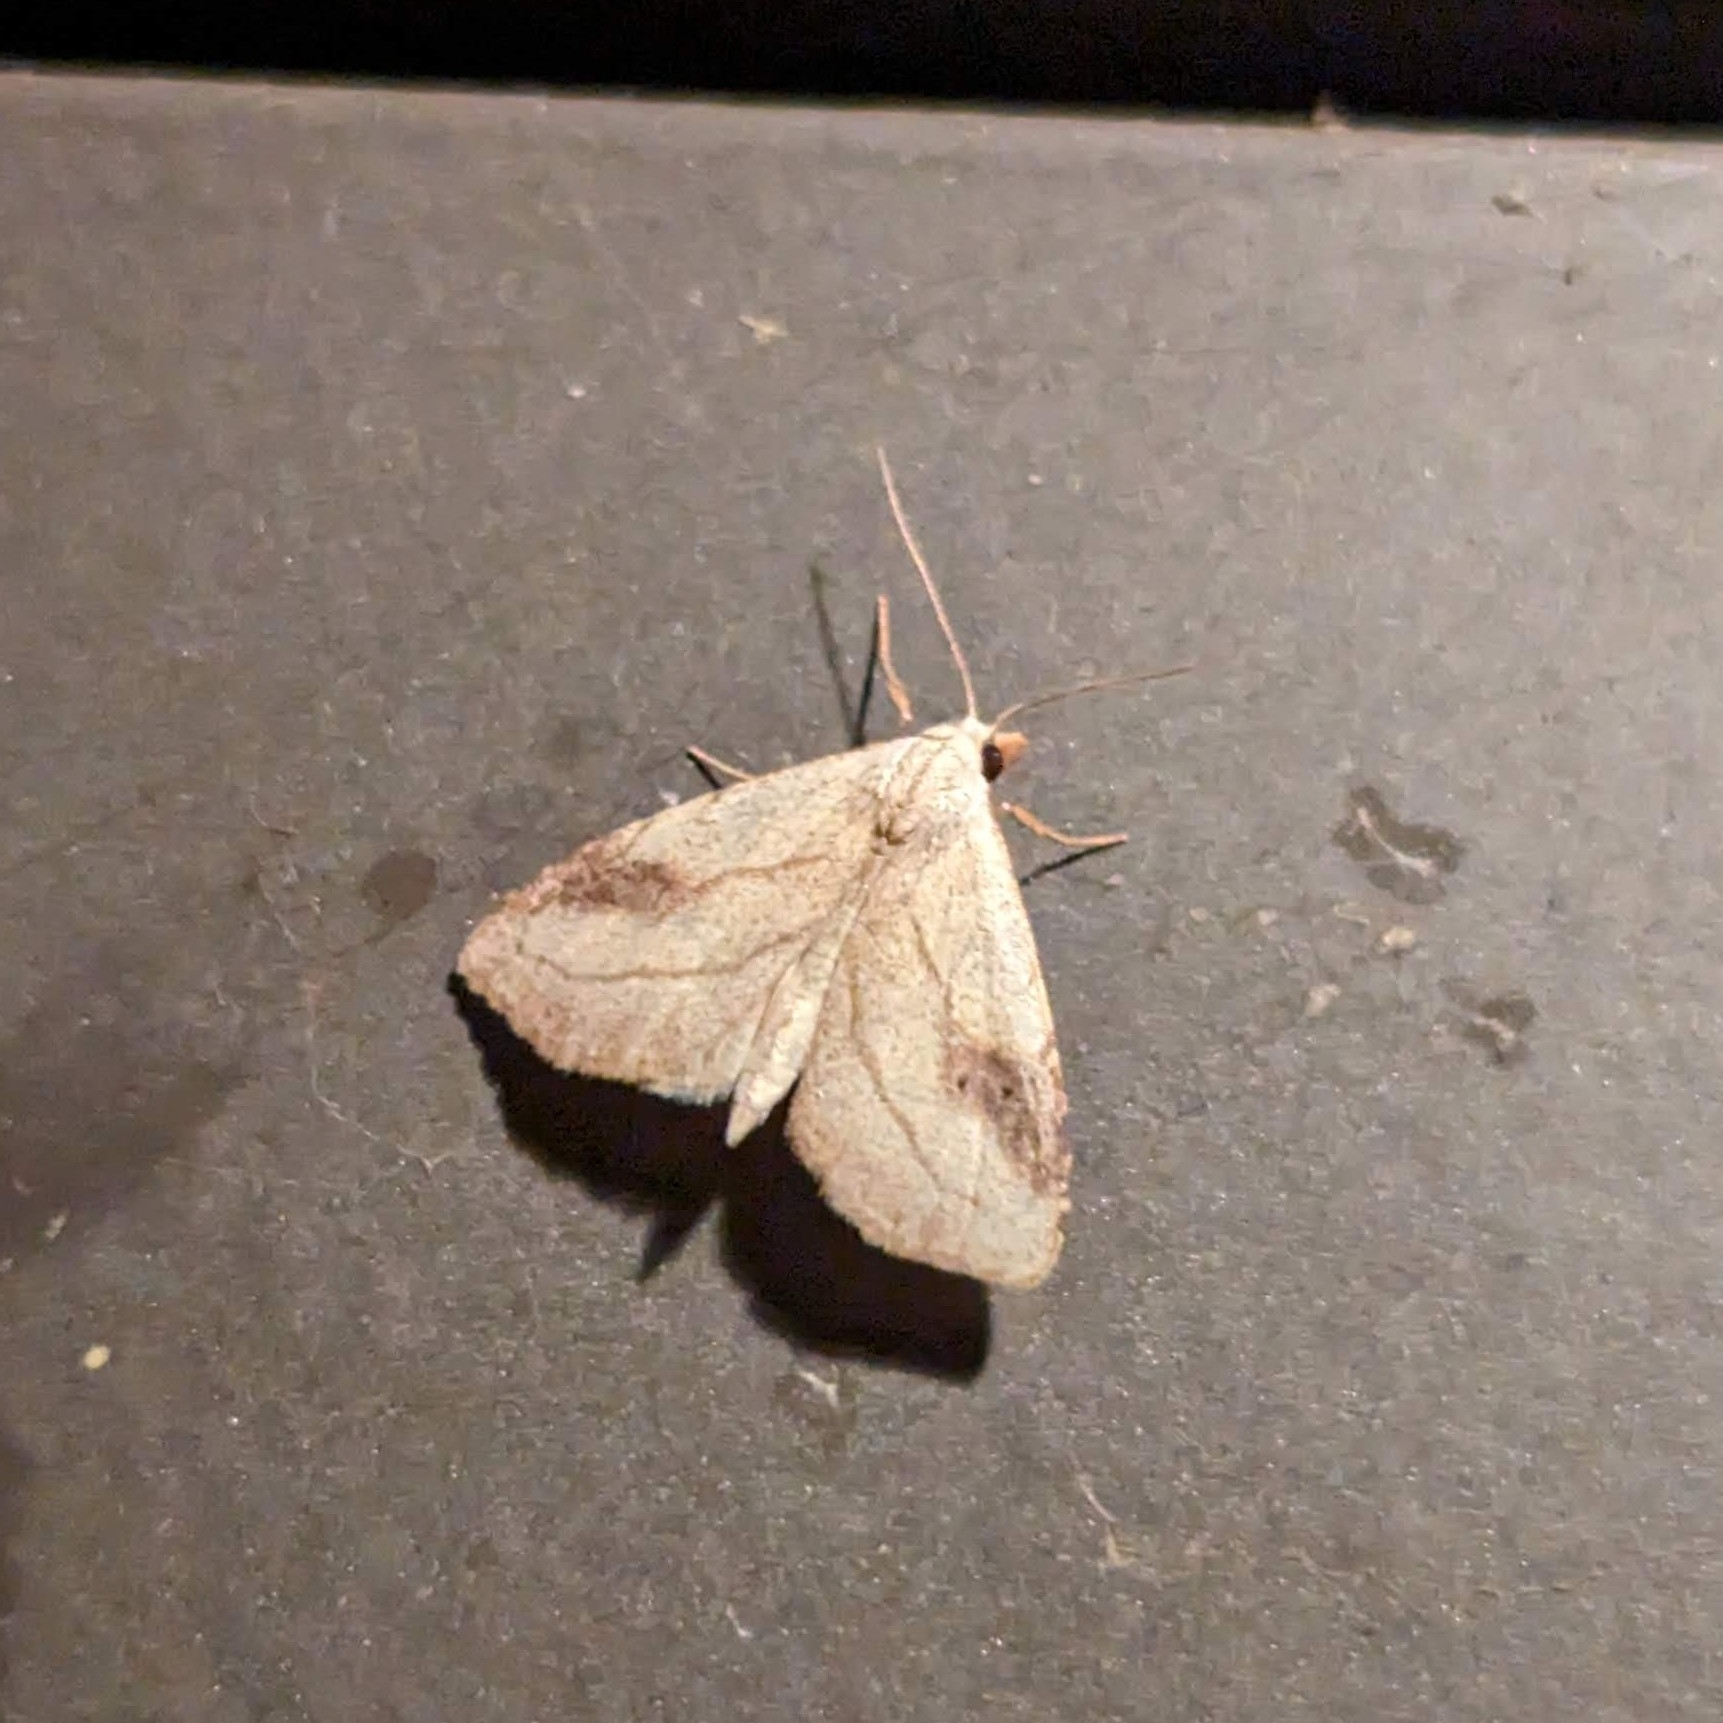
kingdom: Animalia
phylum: Arthropoda
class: Insecta
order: Lepidoptera
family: Erebidae
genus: Rivula
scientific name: Rivula propinqualis
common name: Spotted grass moth
